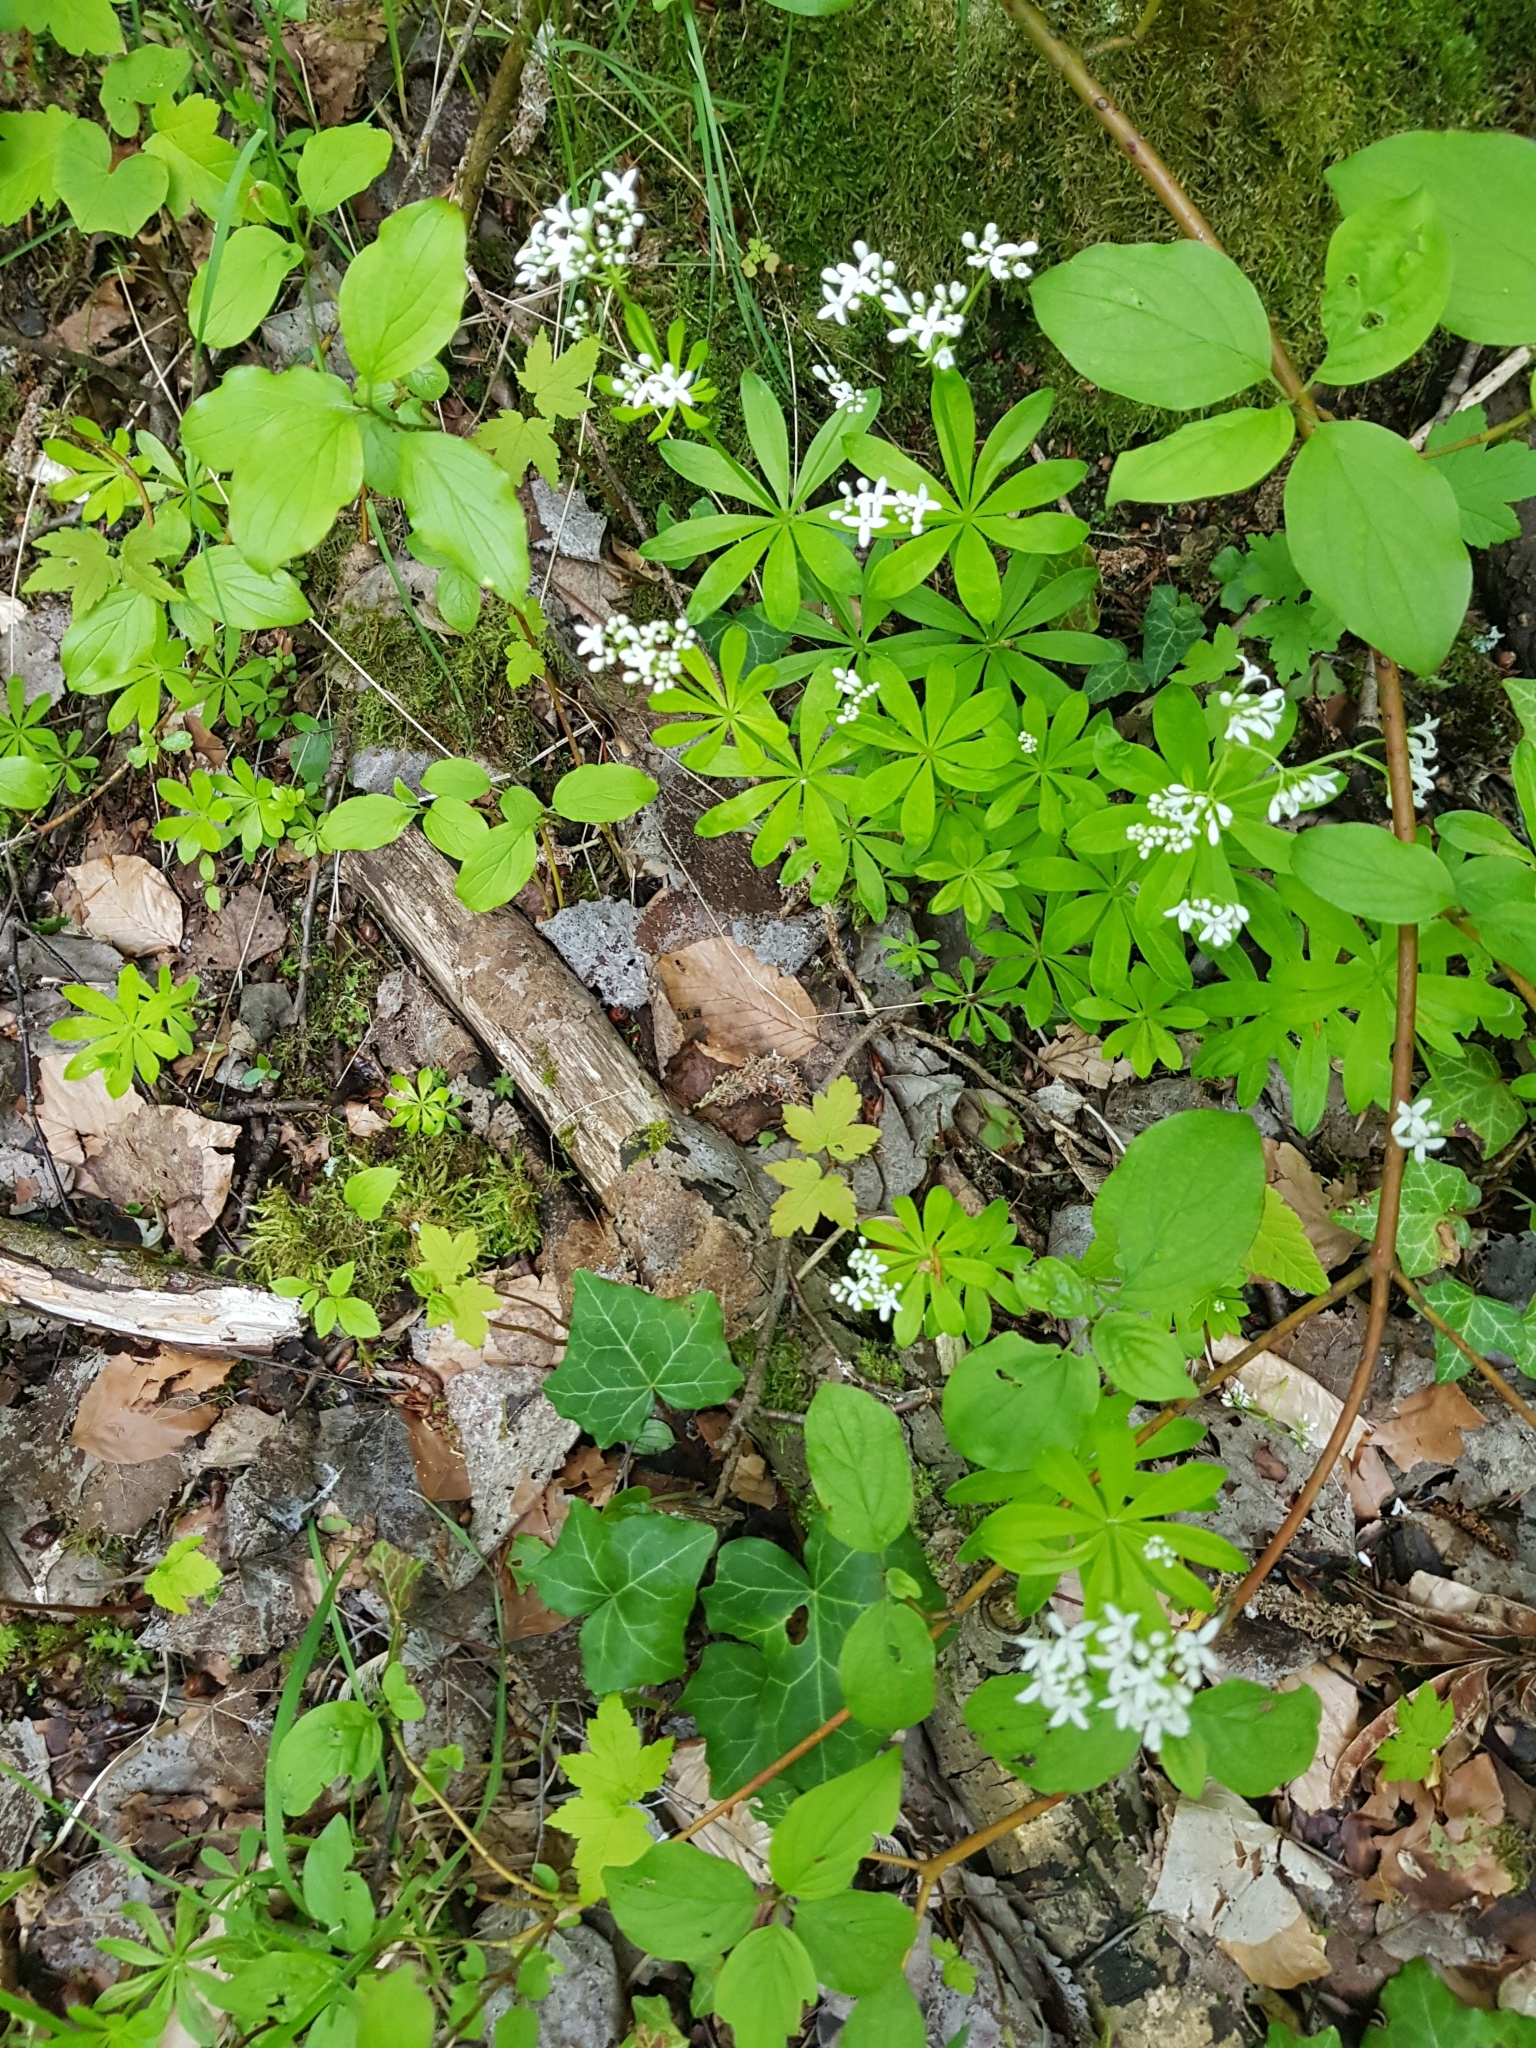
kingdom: Plantae
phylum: Tracheophyta
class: Magnoliopsida
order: Gentianales
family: Rubiaceae
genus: Galium
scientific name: Galium odoratum
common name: Sweet woodruff
